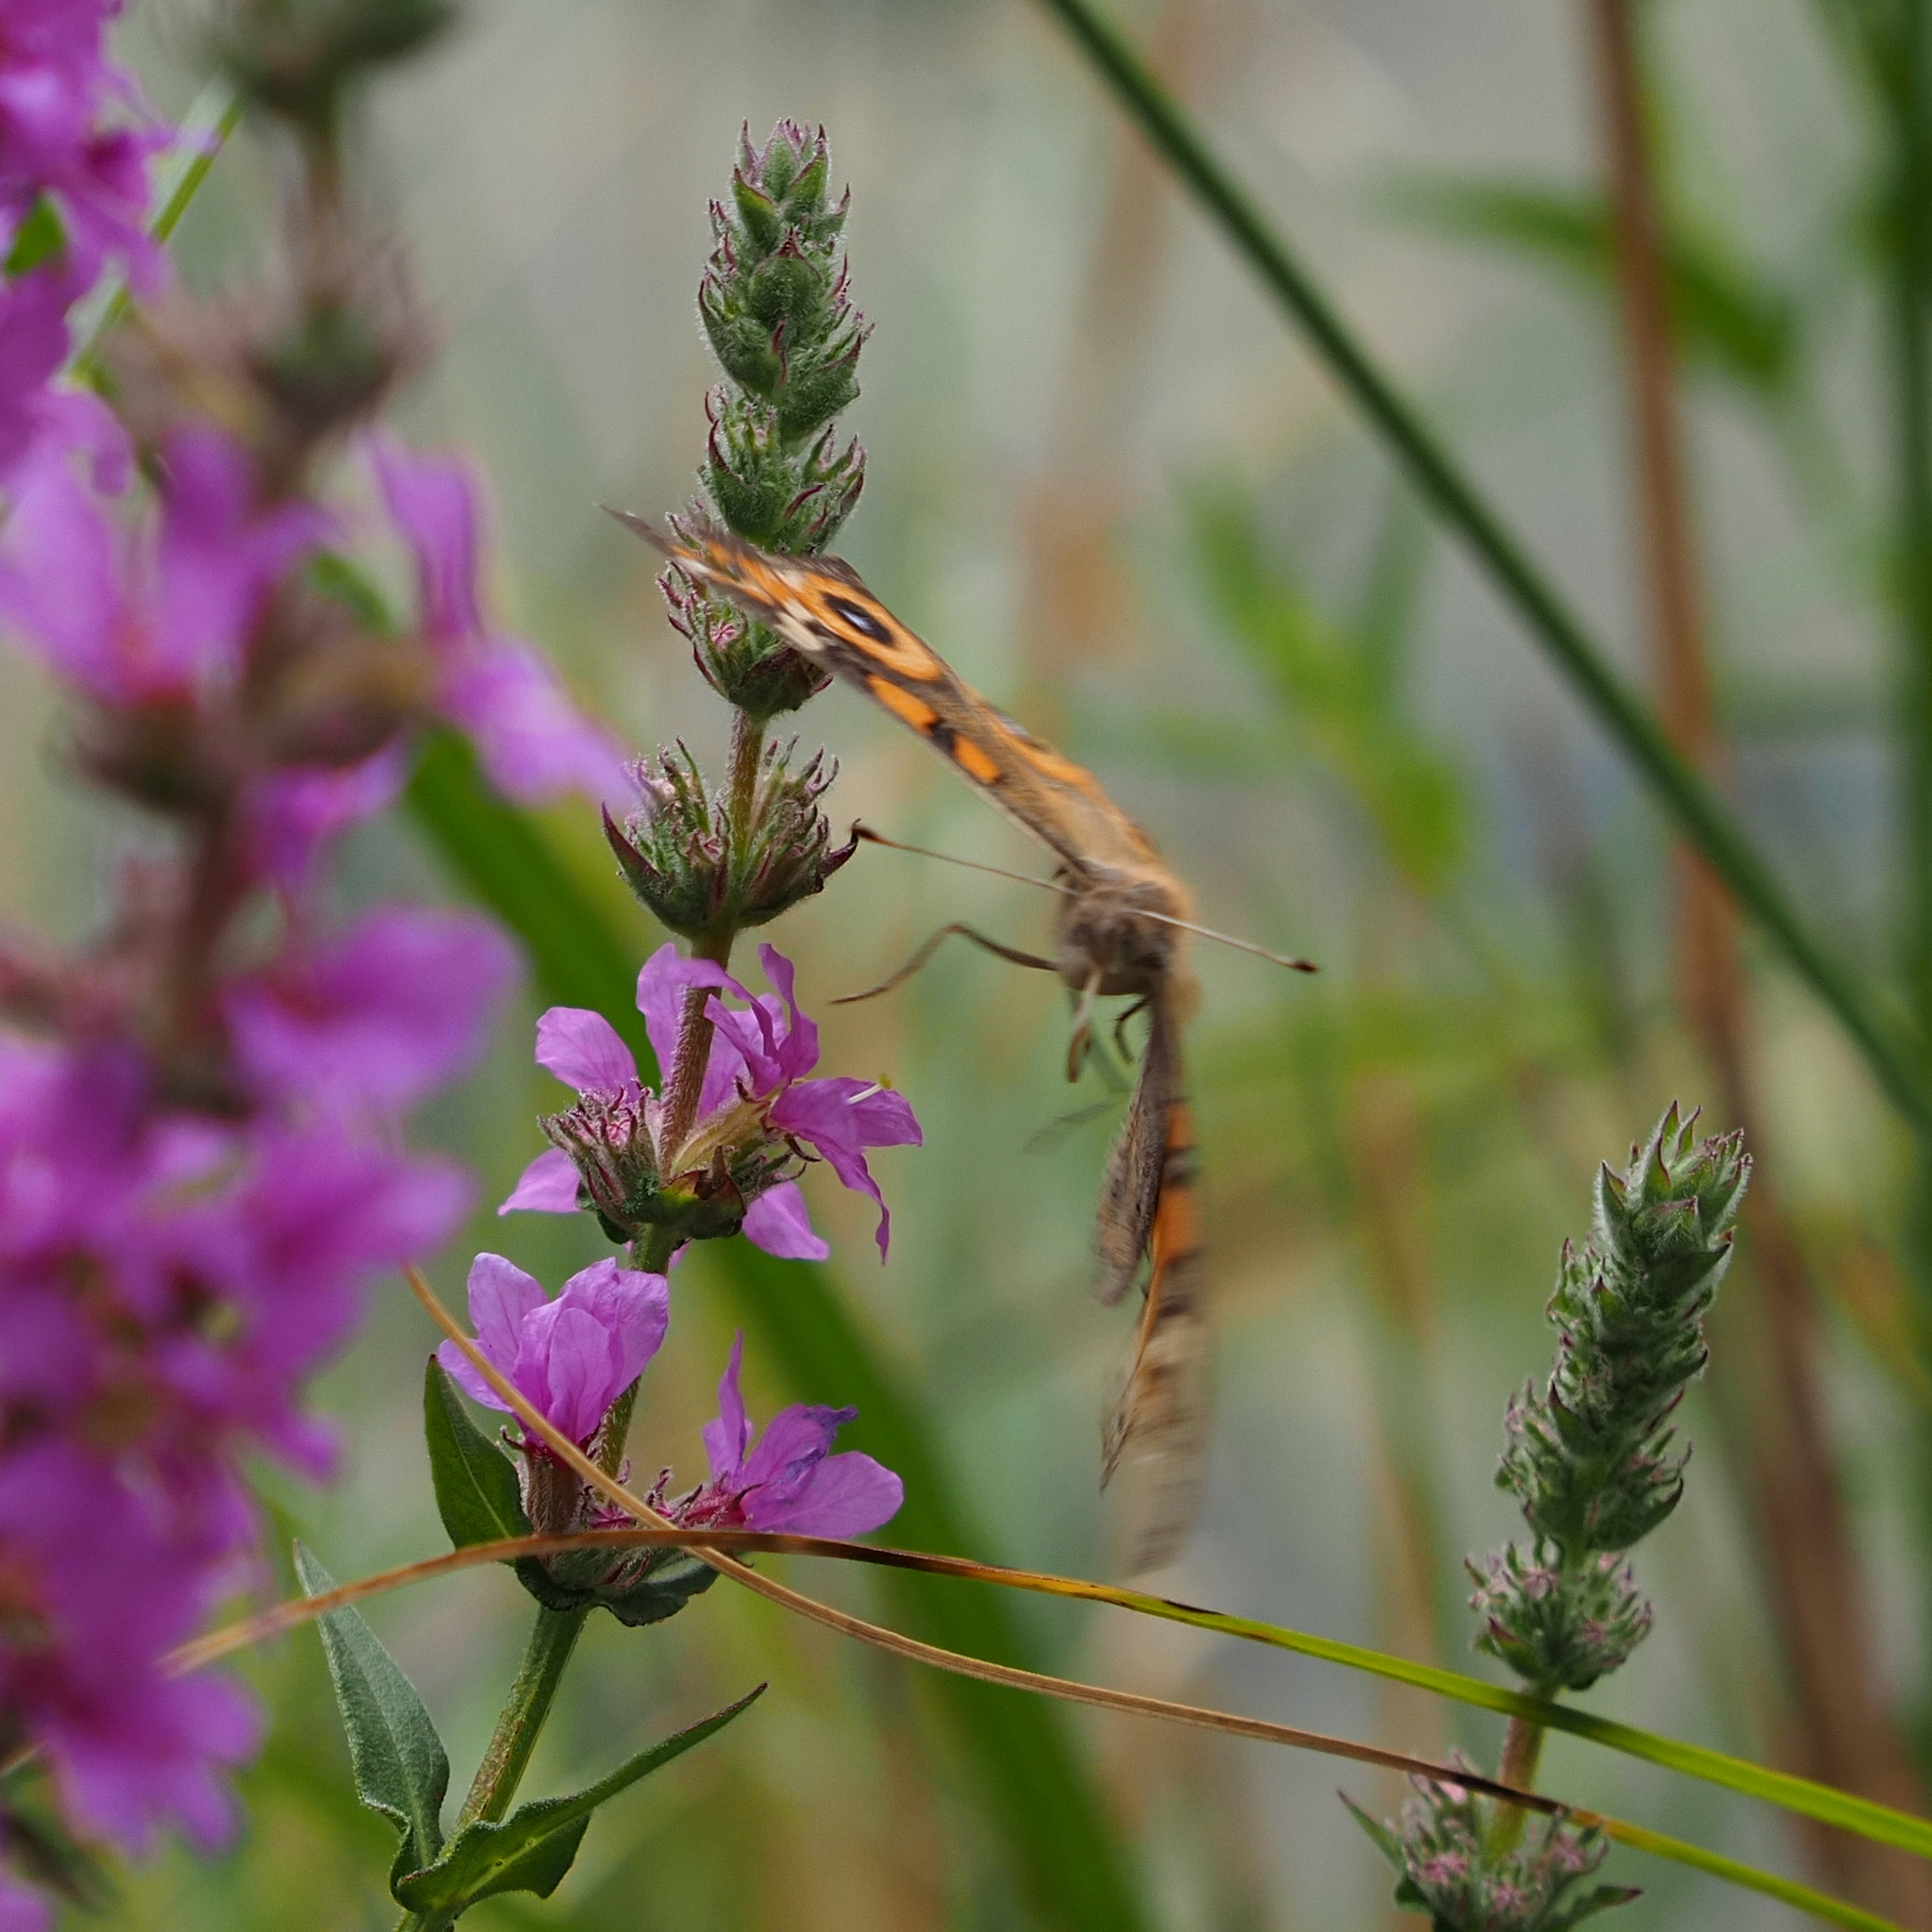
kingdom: Animalia
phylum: Arthropoda
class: Insecta
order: Lepidoptera
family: Nymphalidae
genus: Junonia
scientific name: Junonia villida
